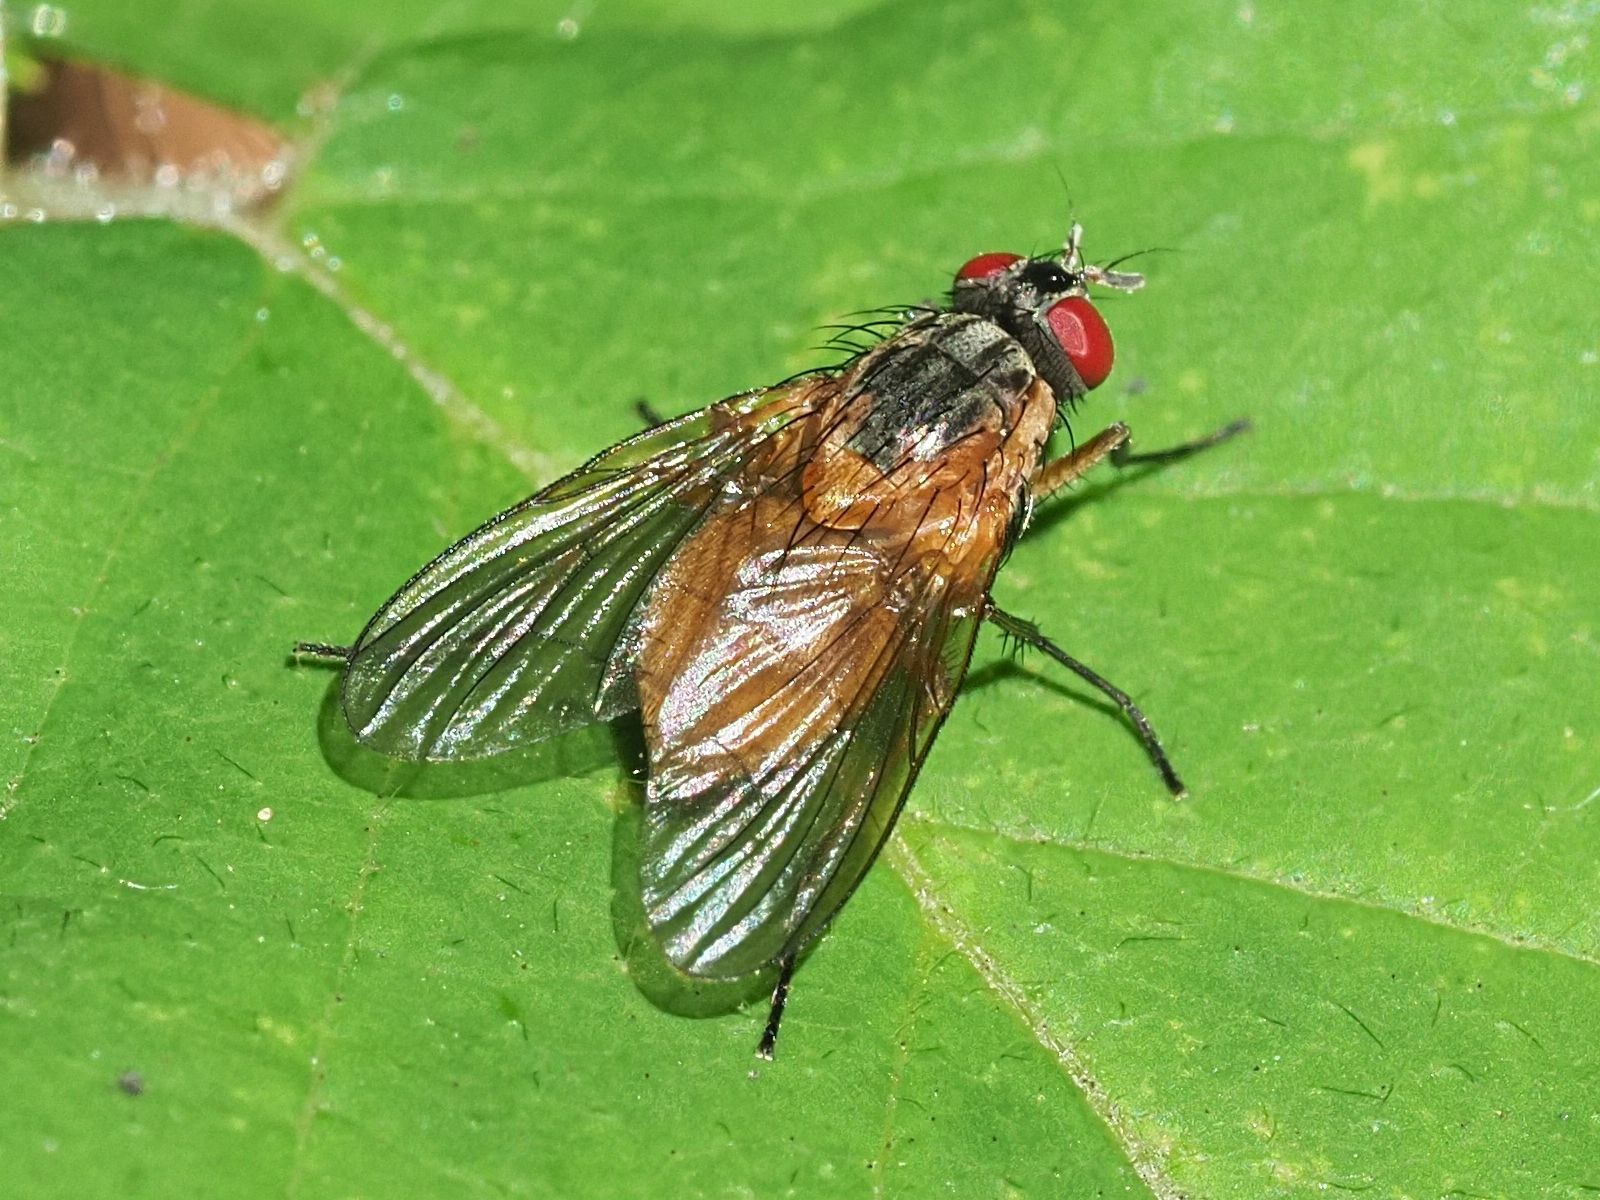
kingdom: Animalia
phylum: Arthropoda
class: Insecta
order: Diptera
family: Muscidae
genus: Phaonia
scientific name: Phaonia rufiventris
